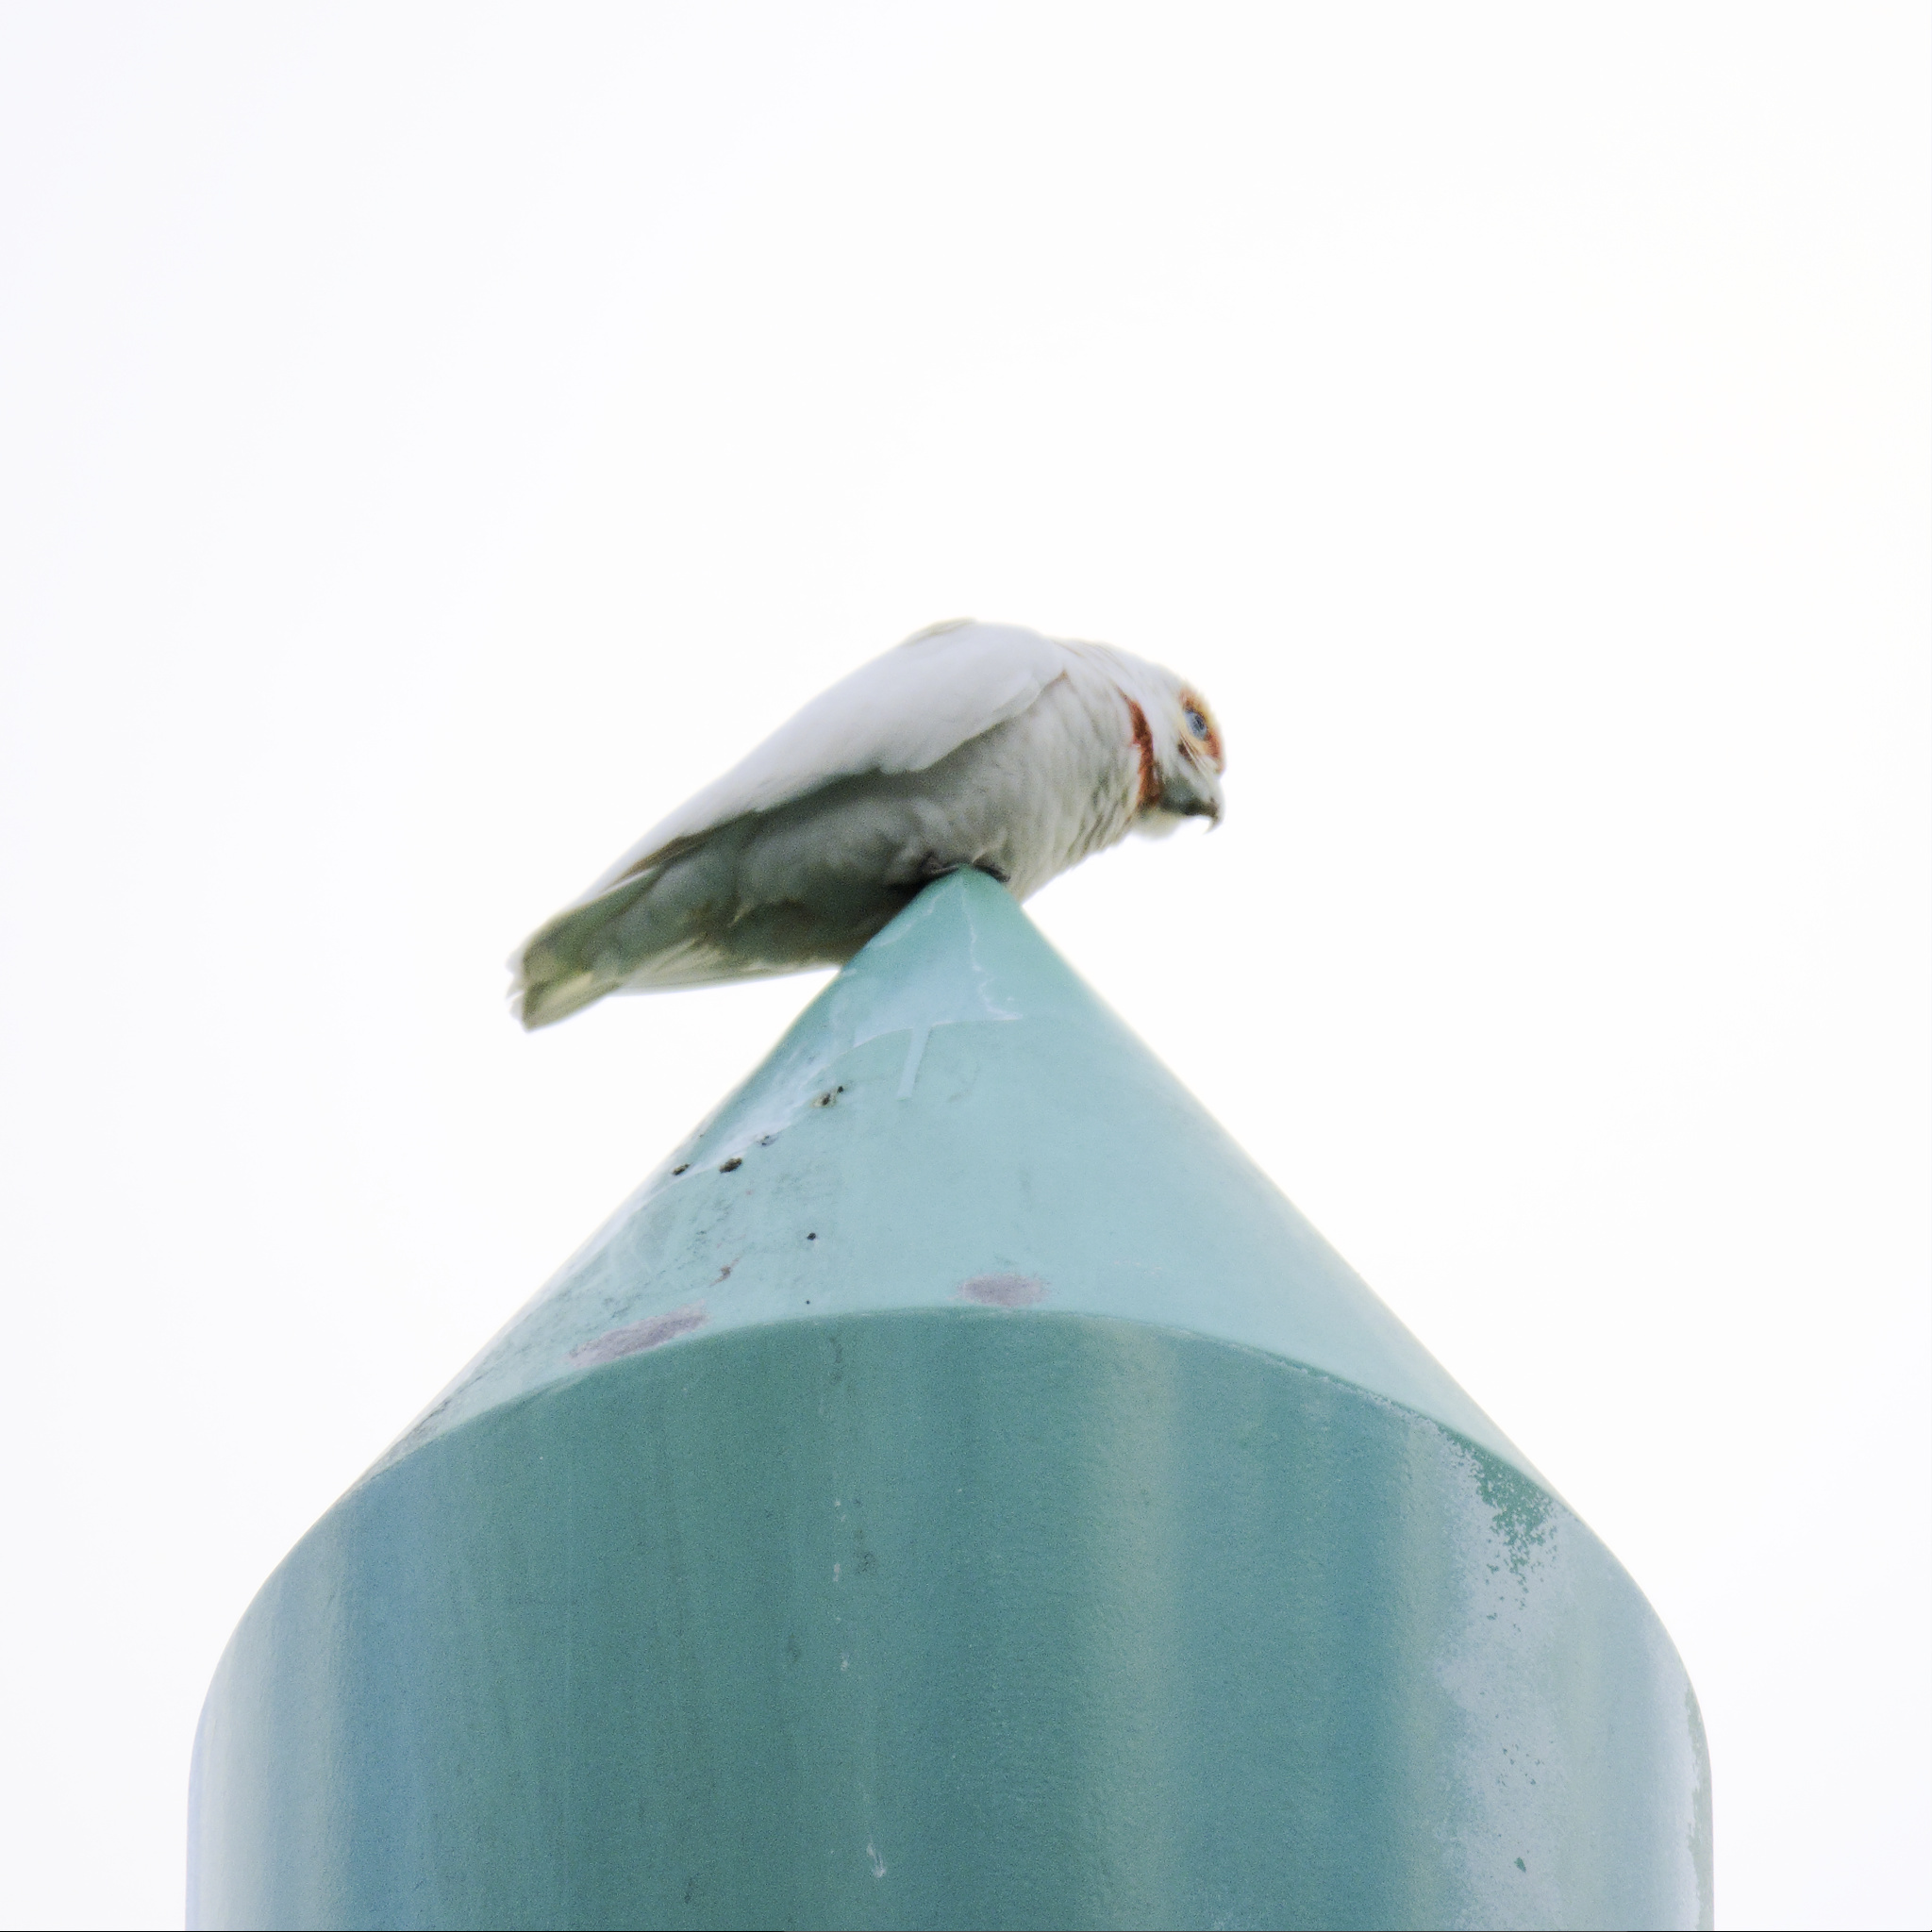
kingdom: Animalia
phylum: Chordata
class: Aves
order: Psittaciformes
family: Psittacidae
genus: Cacatua
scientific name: Cacatua tenuirostris
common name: Long-billed corella
